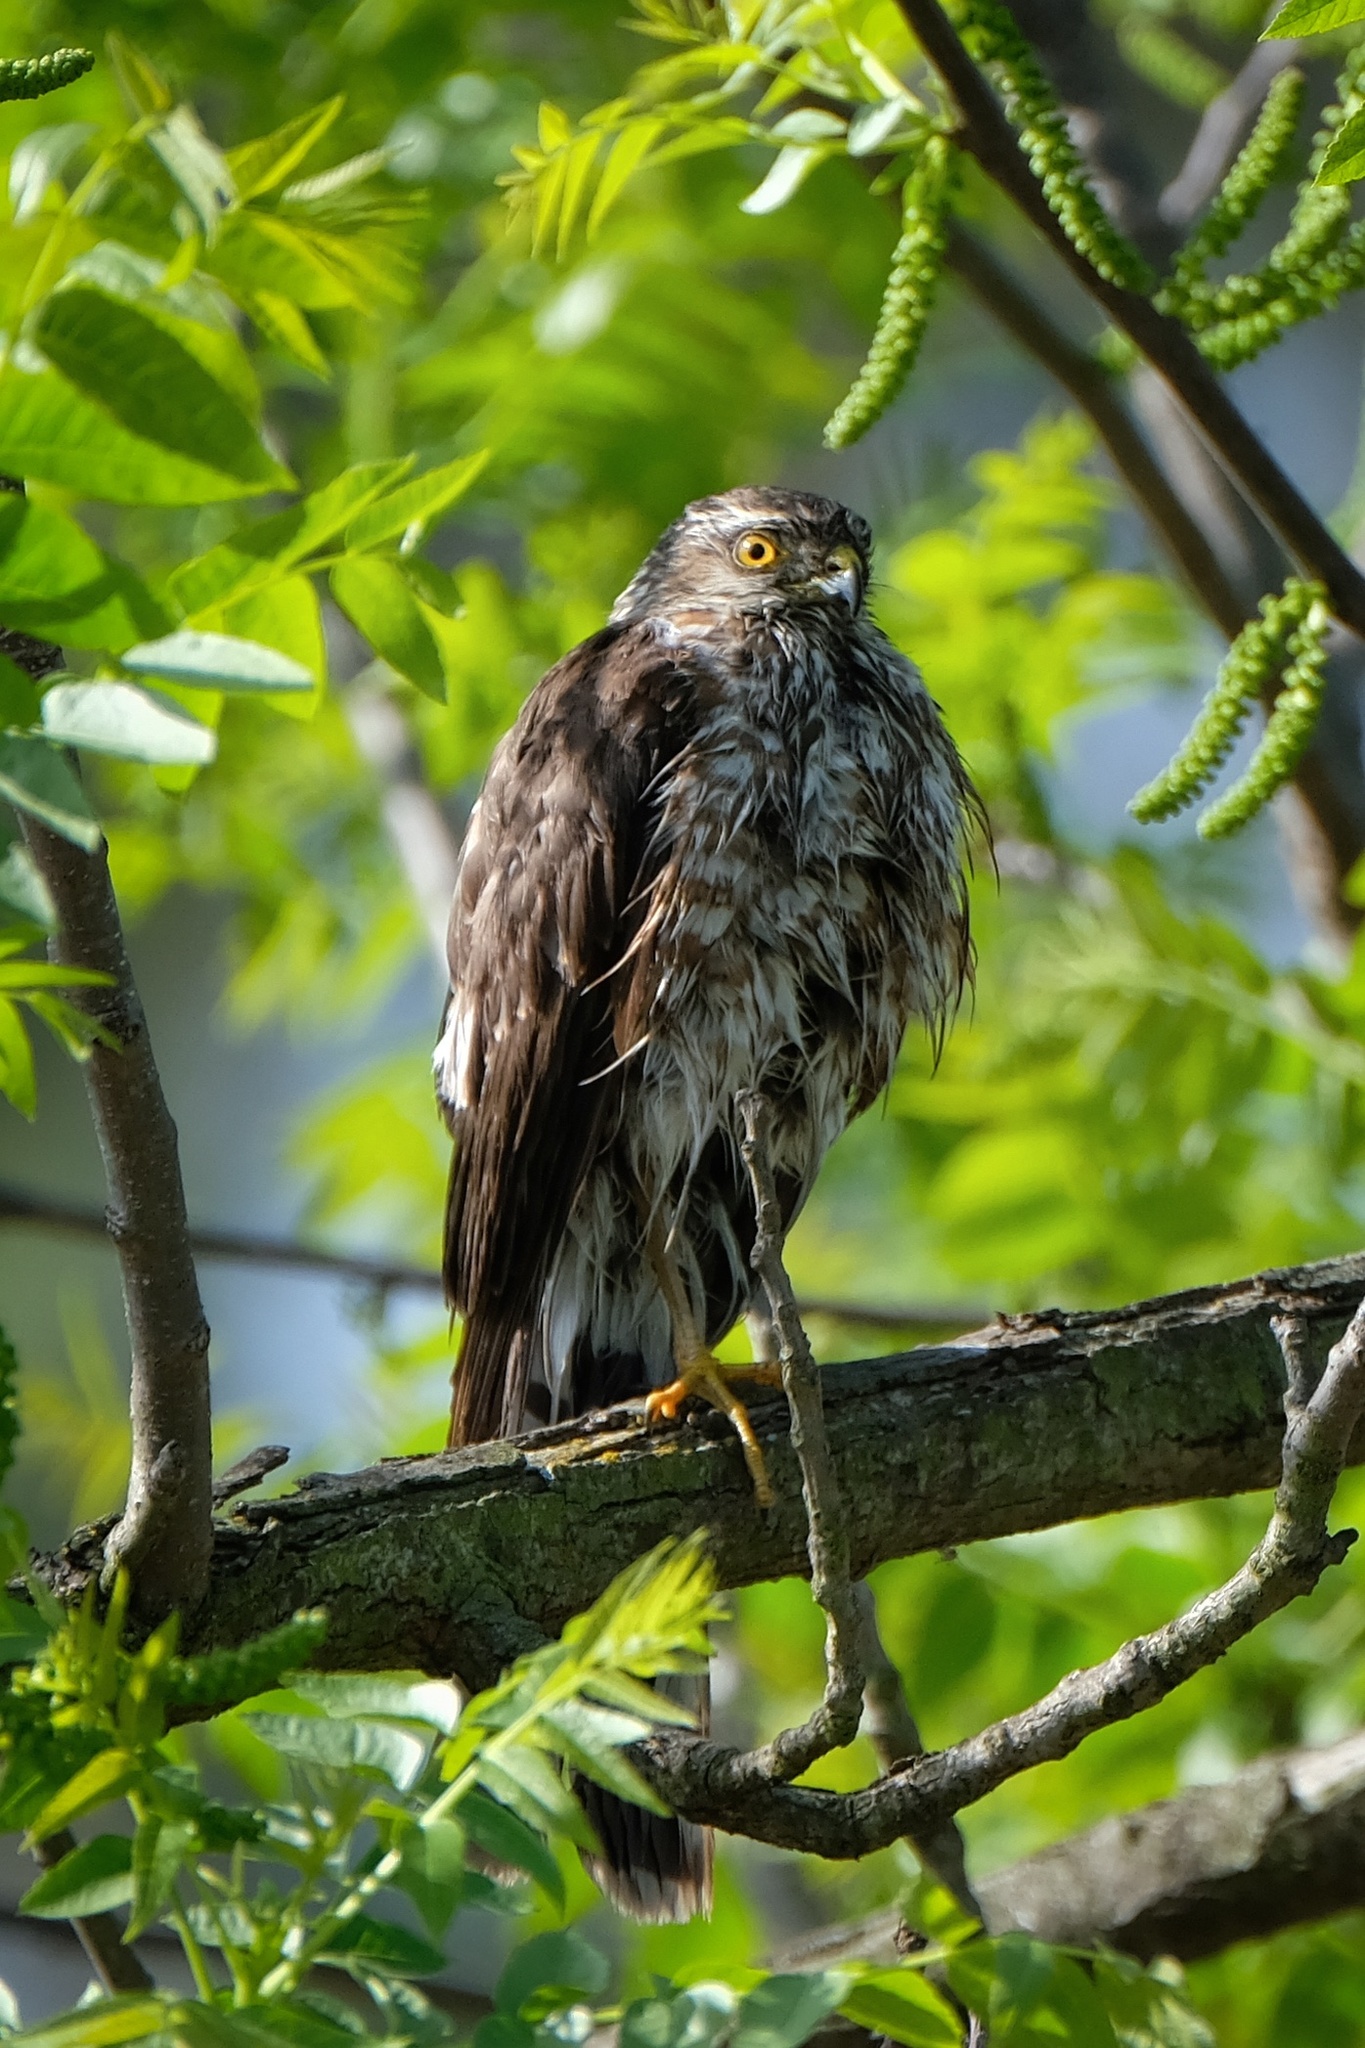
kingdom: Animalia
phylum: Chordata
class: Aves
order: Accipitriformes
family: Accipitridae
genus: Accipiter
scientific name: Accipiter striatus
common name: Sharp-shinned hawk
